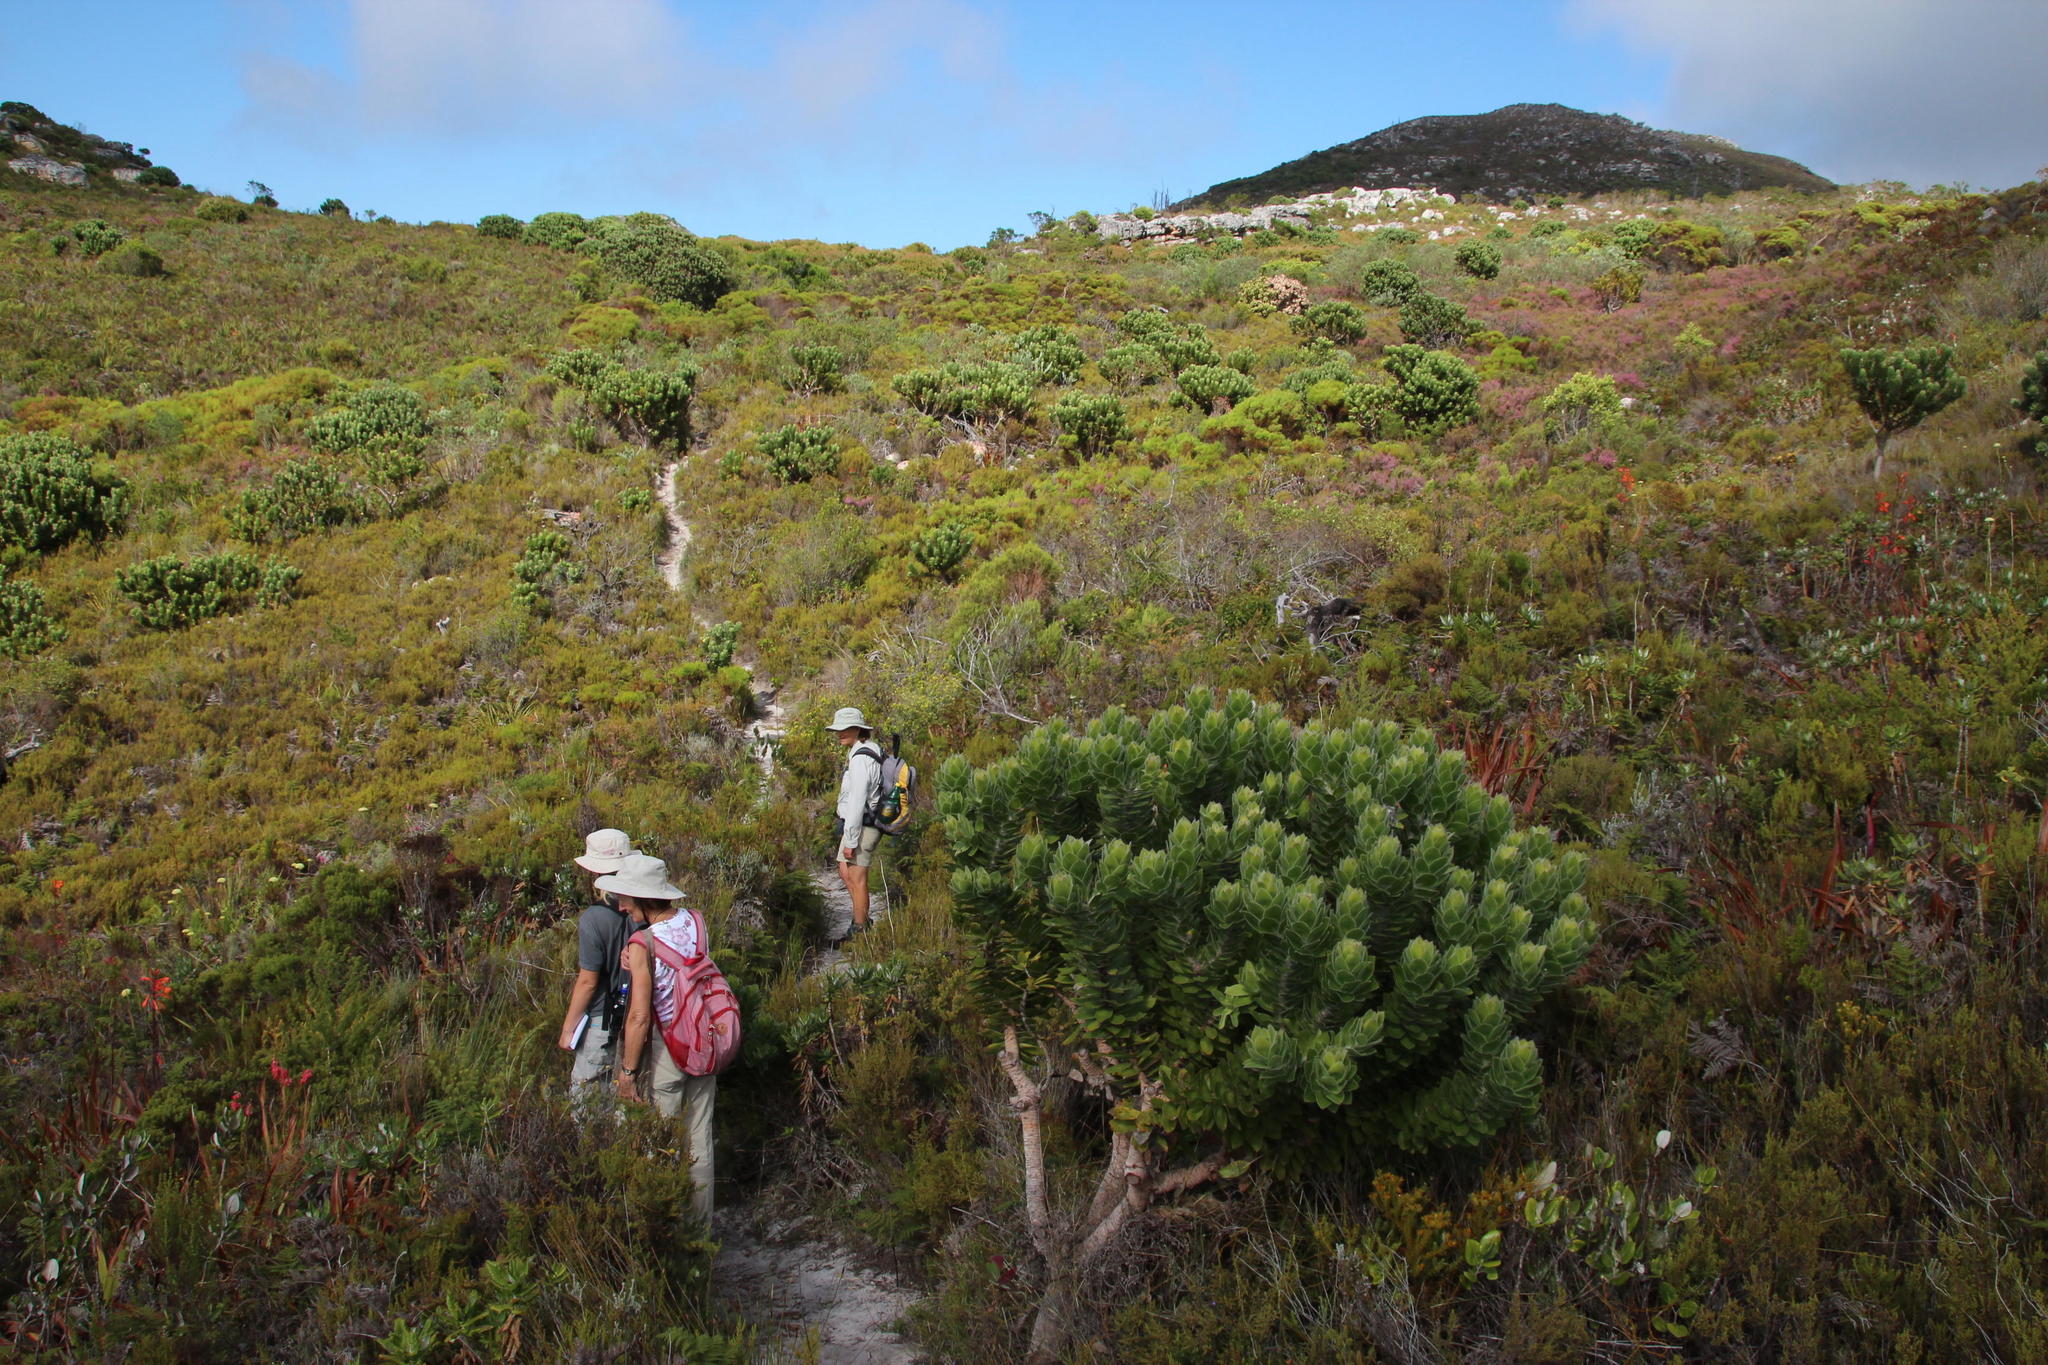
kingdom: Plantae
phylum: Tracheophyta
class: Magnoliopsida
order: Proteales
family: Proteaceae
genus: Leucospermum
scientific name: Leucospermum conocarpodendron
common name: Tree pincushion
